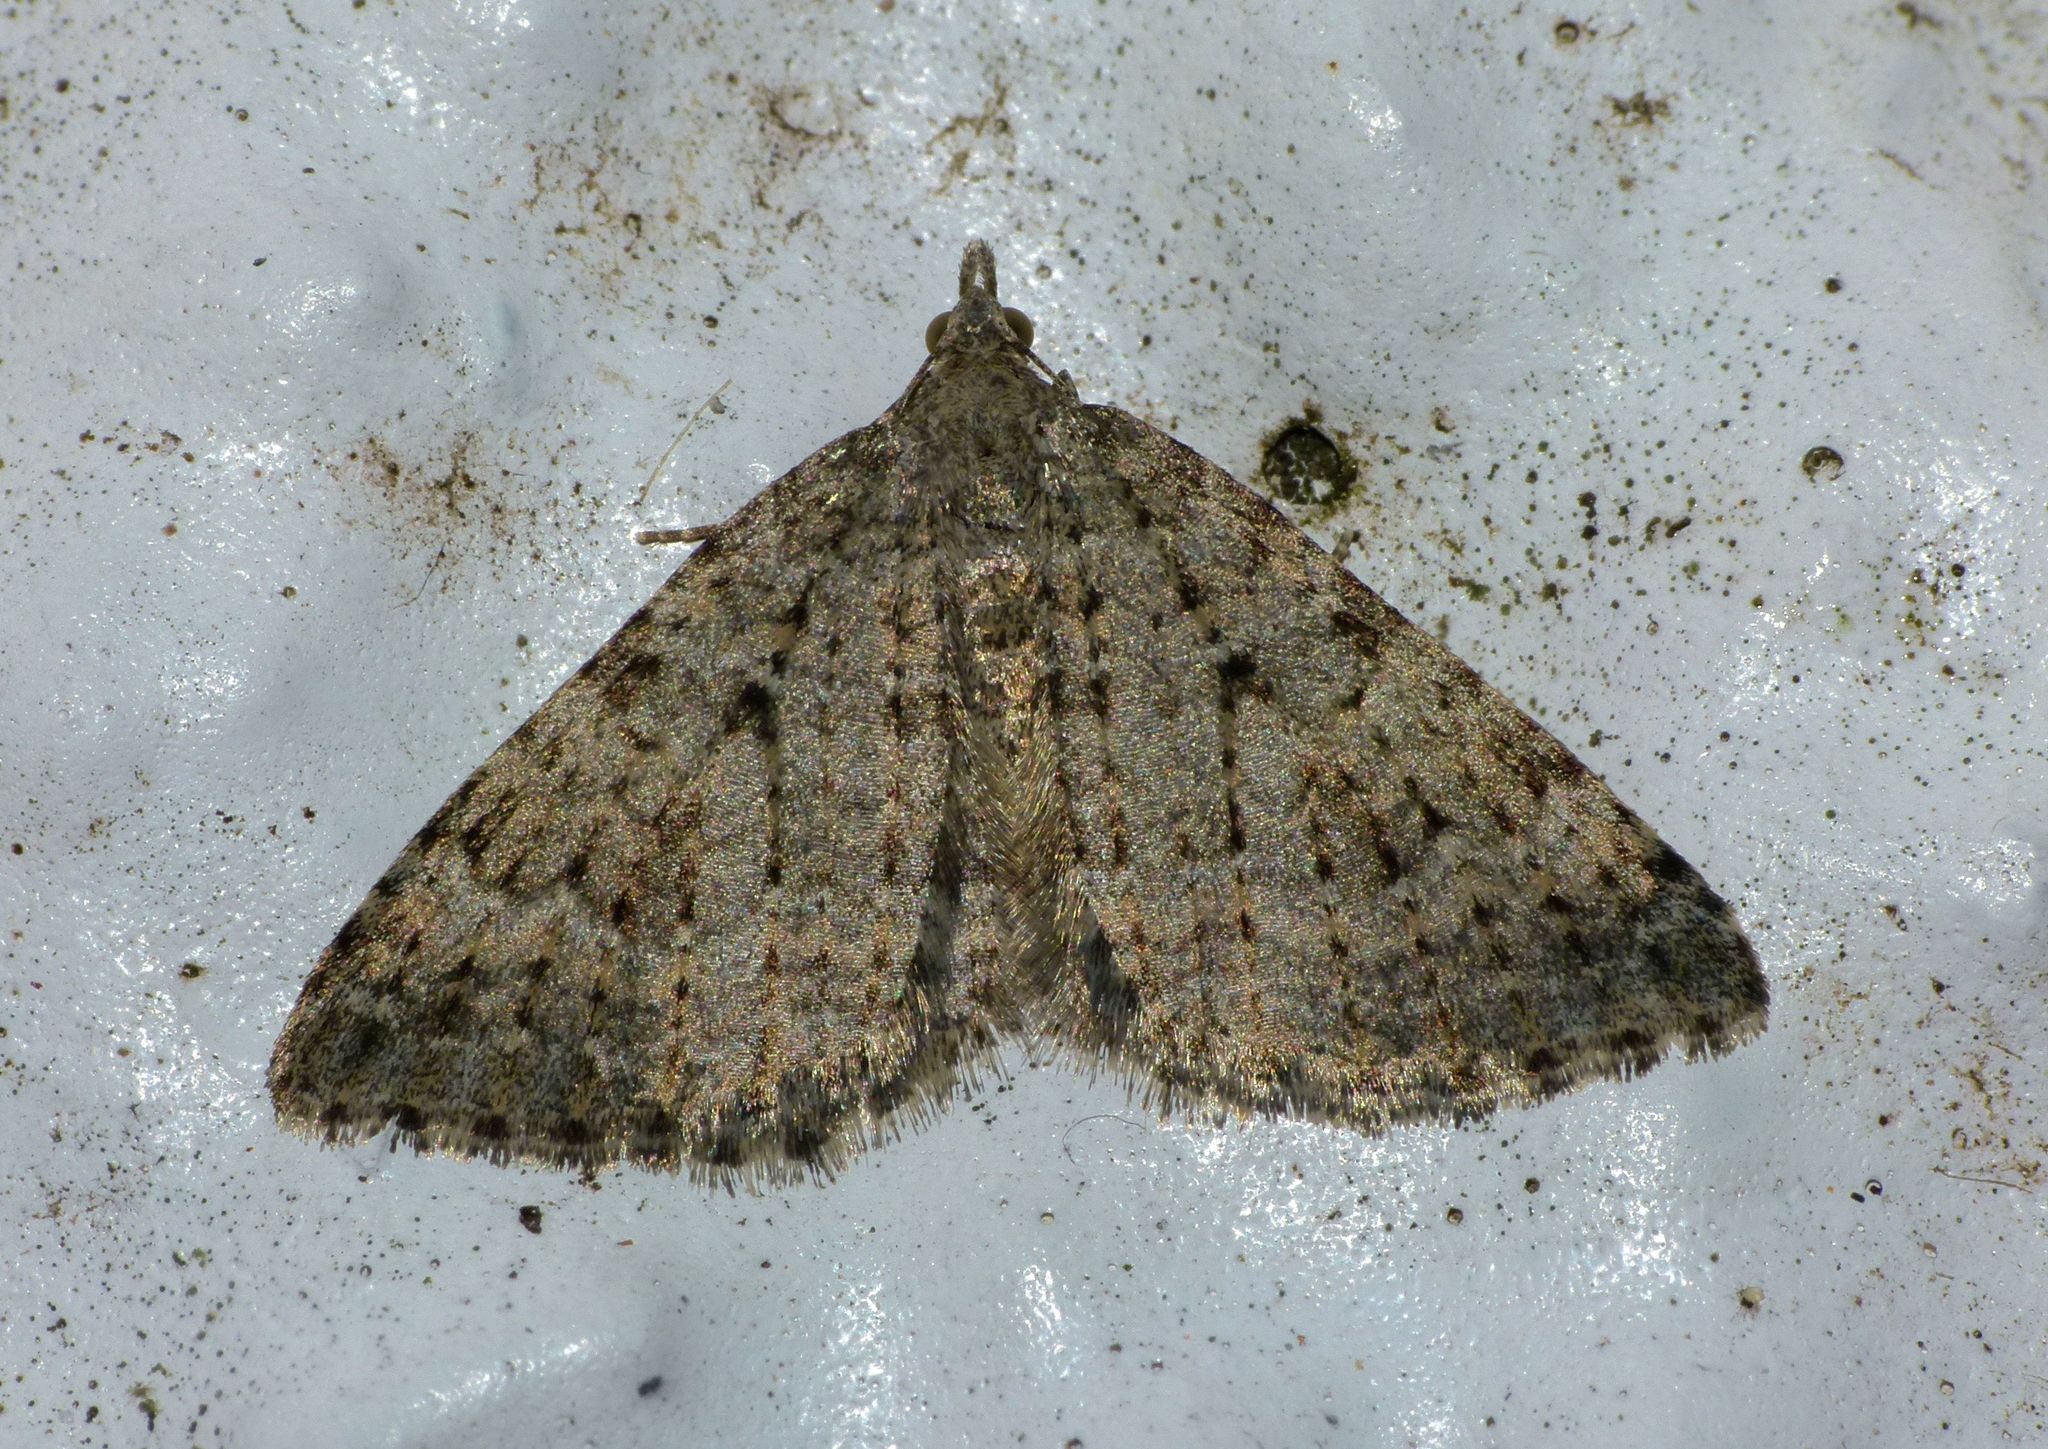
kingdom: Animalia
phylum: Arthropoda
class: Insecta
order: Lepidoptera
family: Geometridae
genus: Helastia
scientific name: Helastia corcularia
